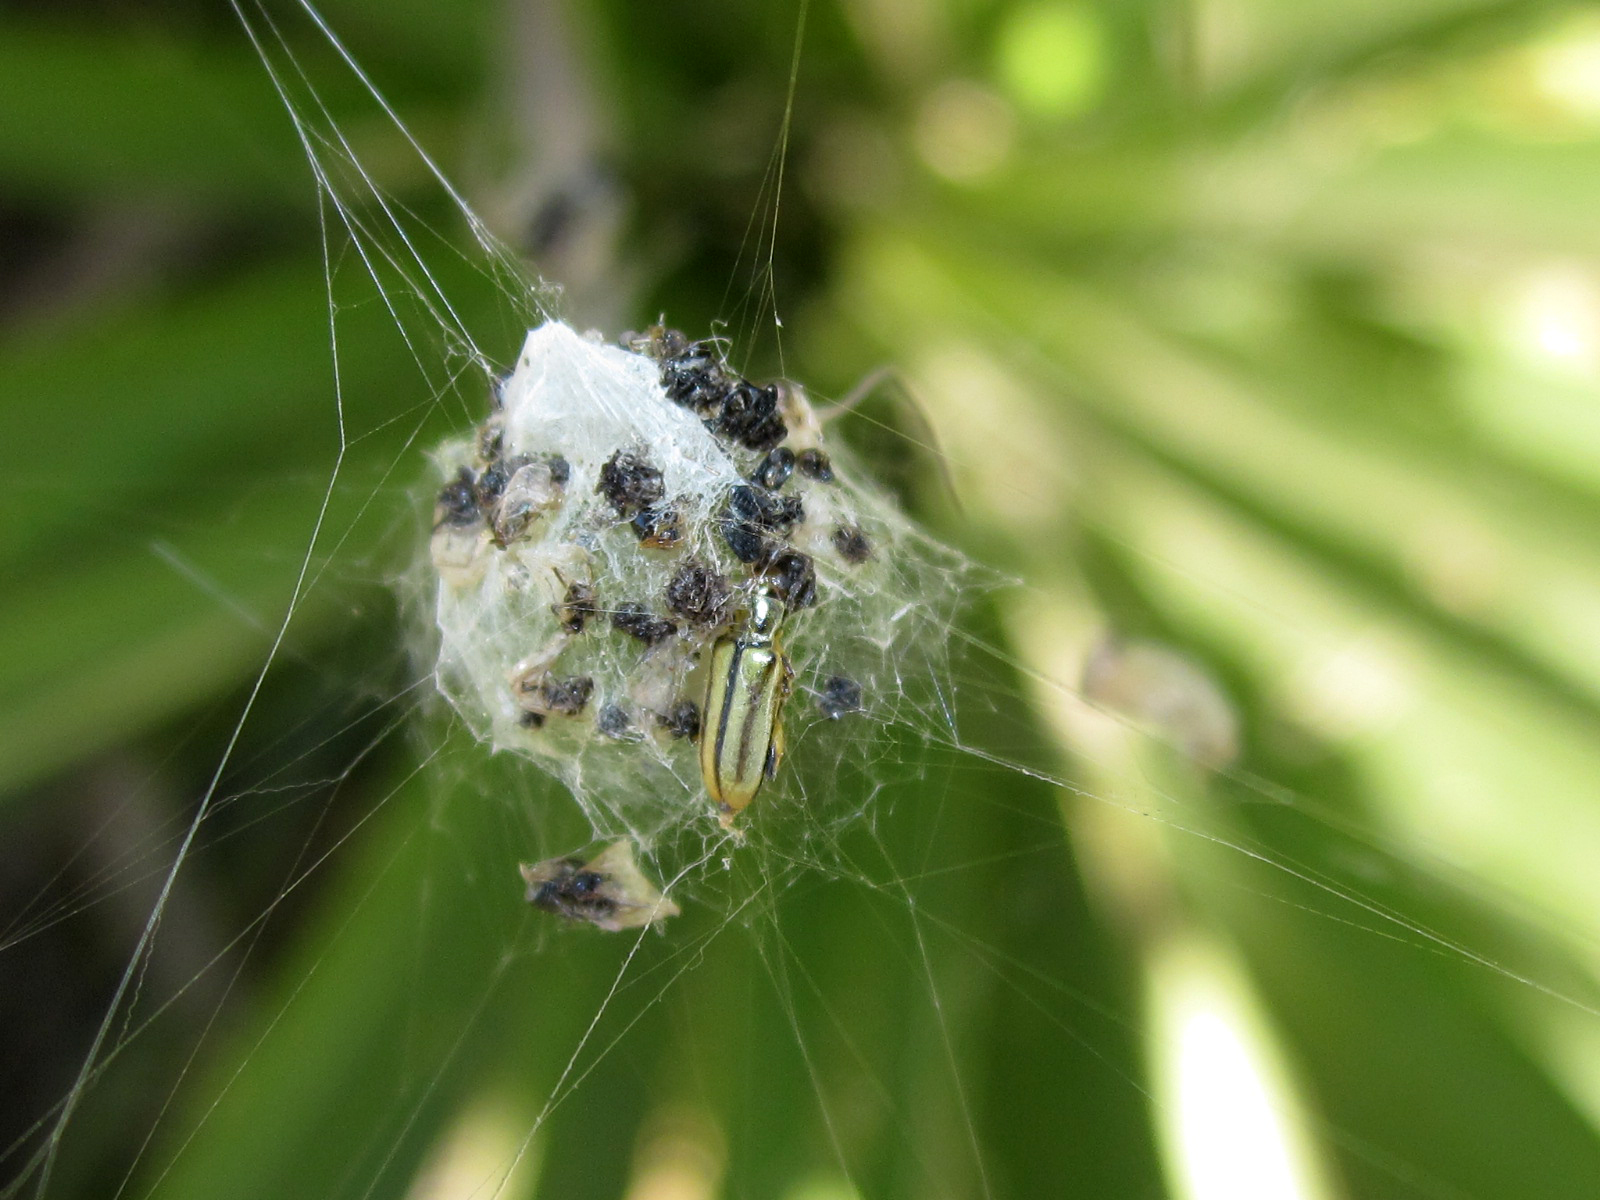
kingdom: Animalia
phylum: Arthropoda
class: Arachnida
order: Araneae
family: Araneidae
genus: Metepeira
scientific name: Metepeira
